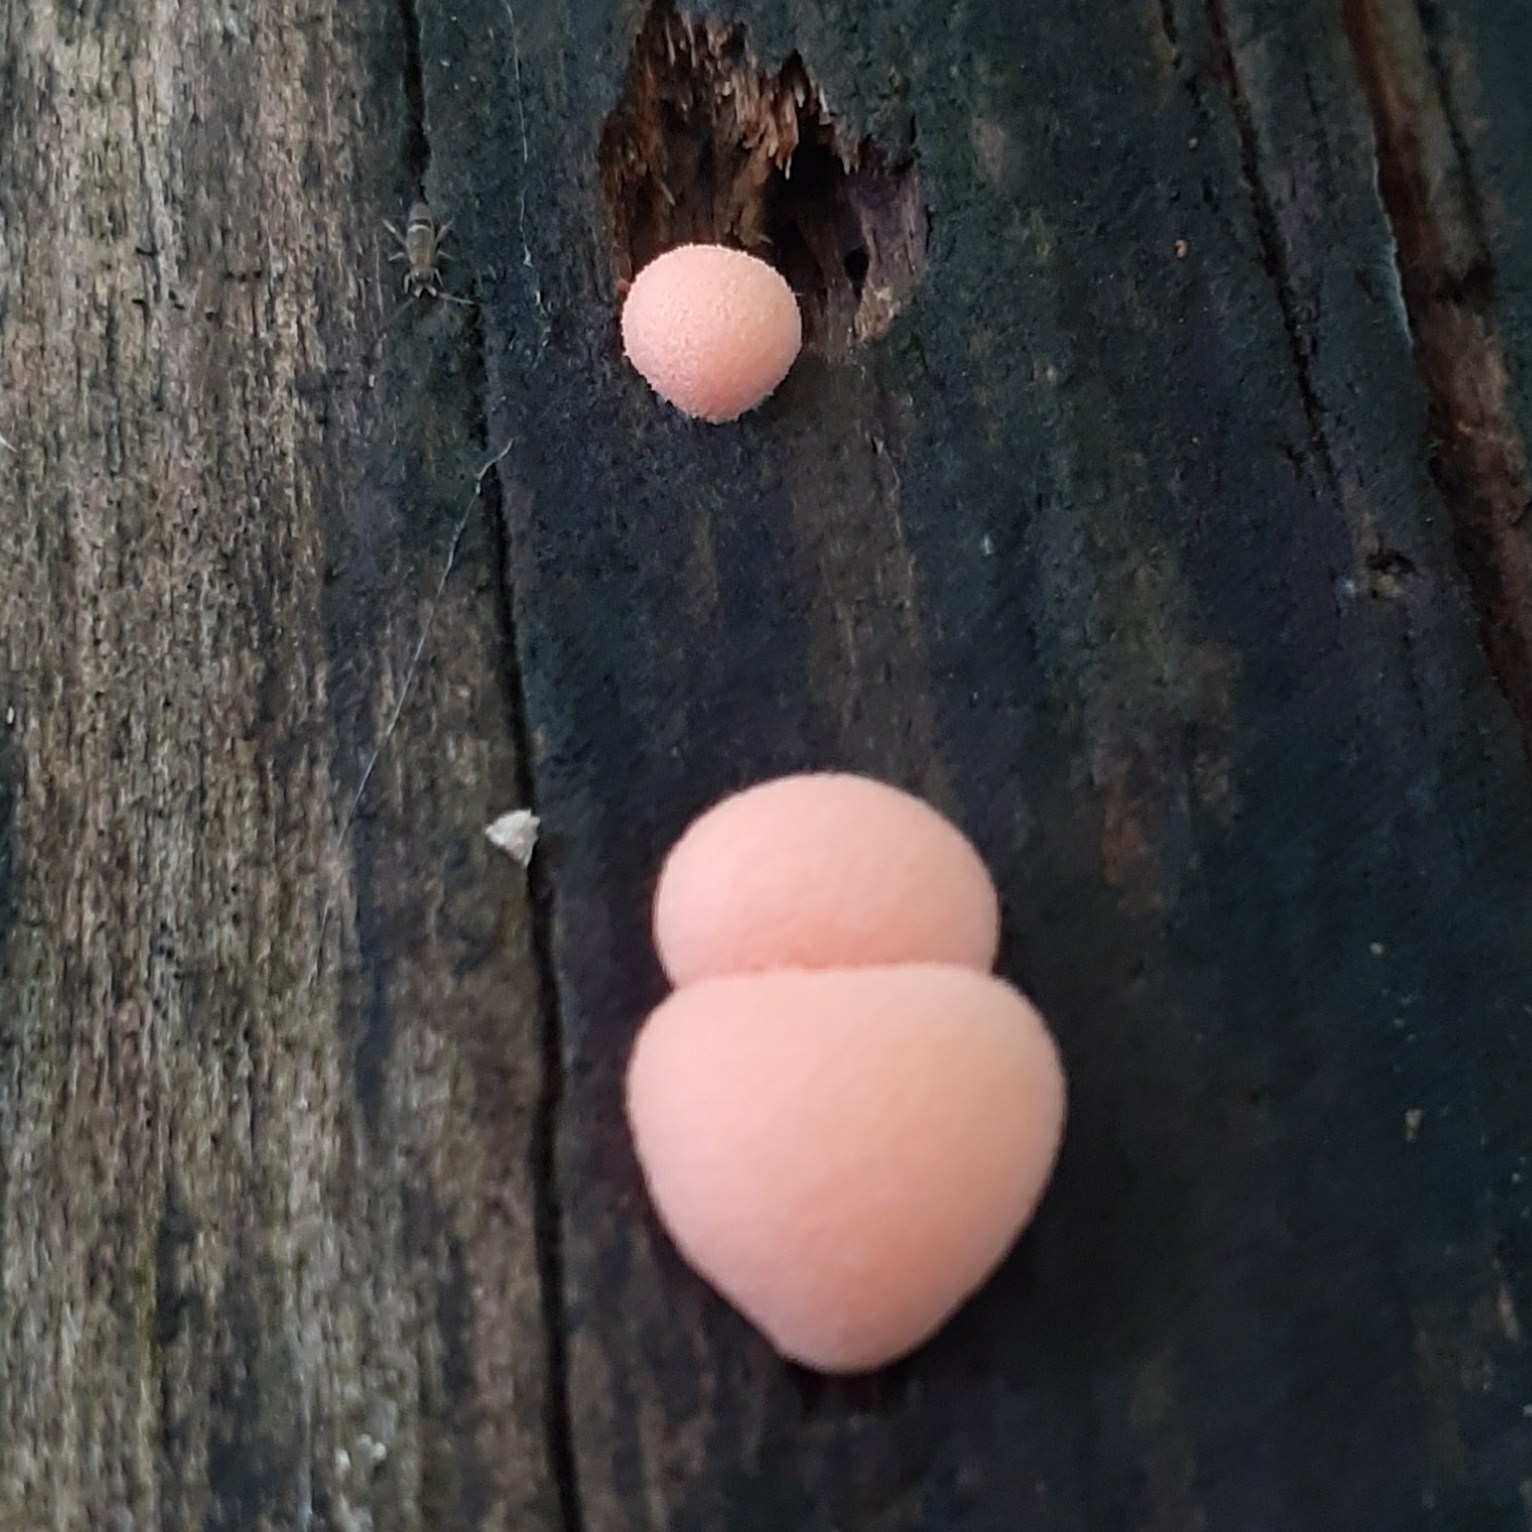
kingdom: Protozoa
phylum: Mycetozoa
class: Myxomycetes
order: Cribrariales
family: Tubiferaceae
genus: Lycogala
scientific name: Lycogala epidendrum
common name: Wolf's milk
